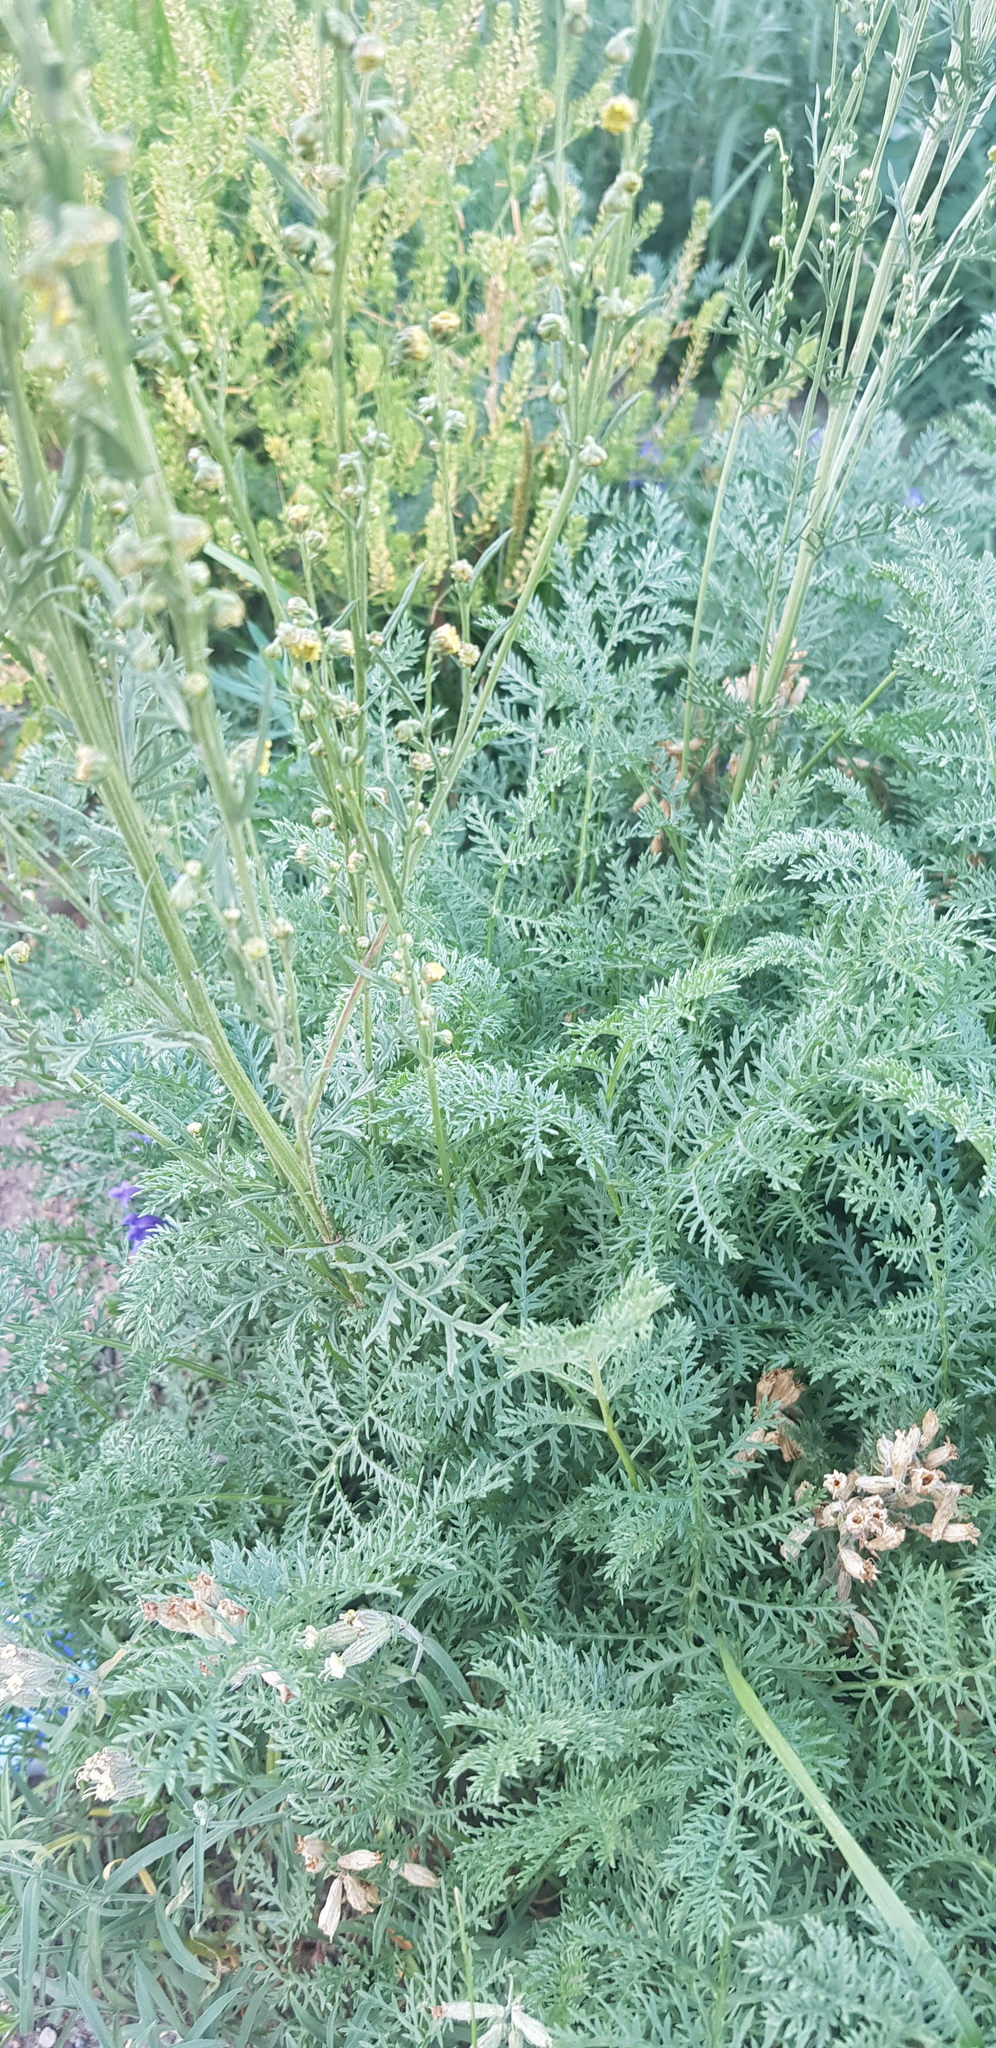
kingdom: Plantae
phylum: Tracheophyta
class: Magnoliopsida
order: Asterales
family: Asteraceae
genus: Artemisia
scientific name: Artemisia gmelinii
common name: Gmelin's wormwood
